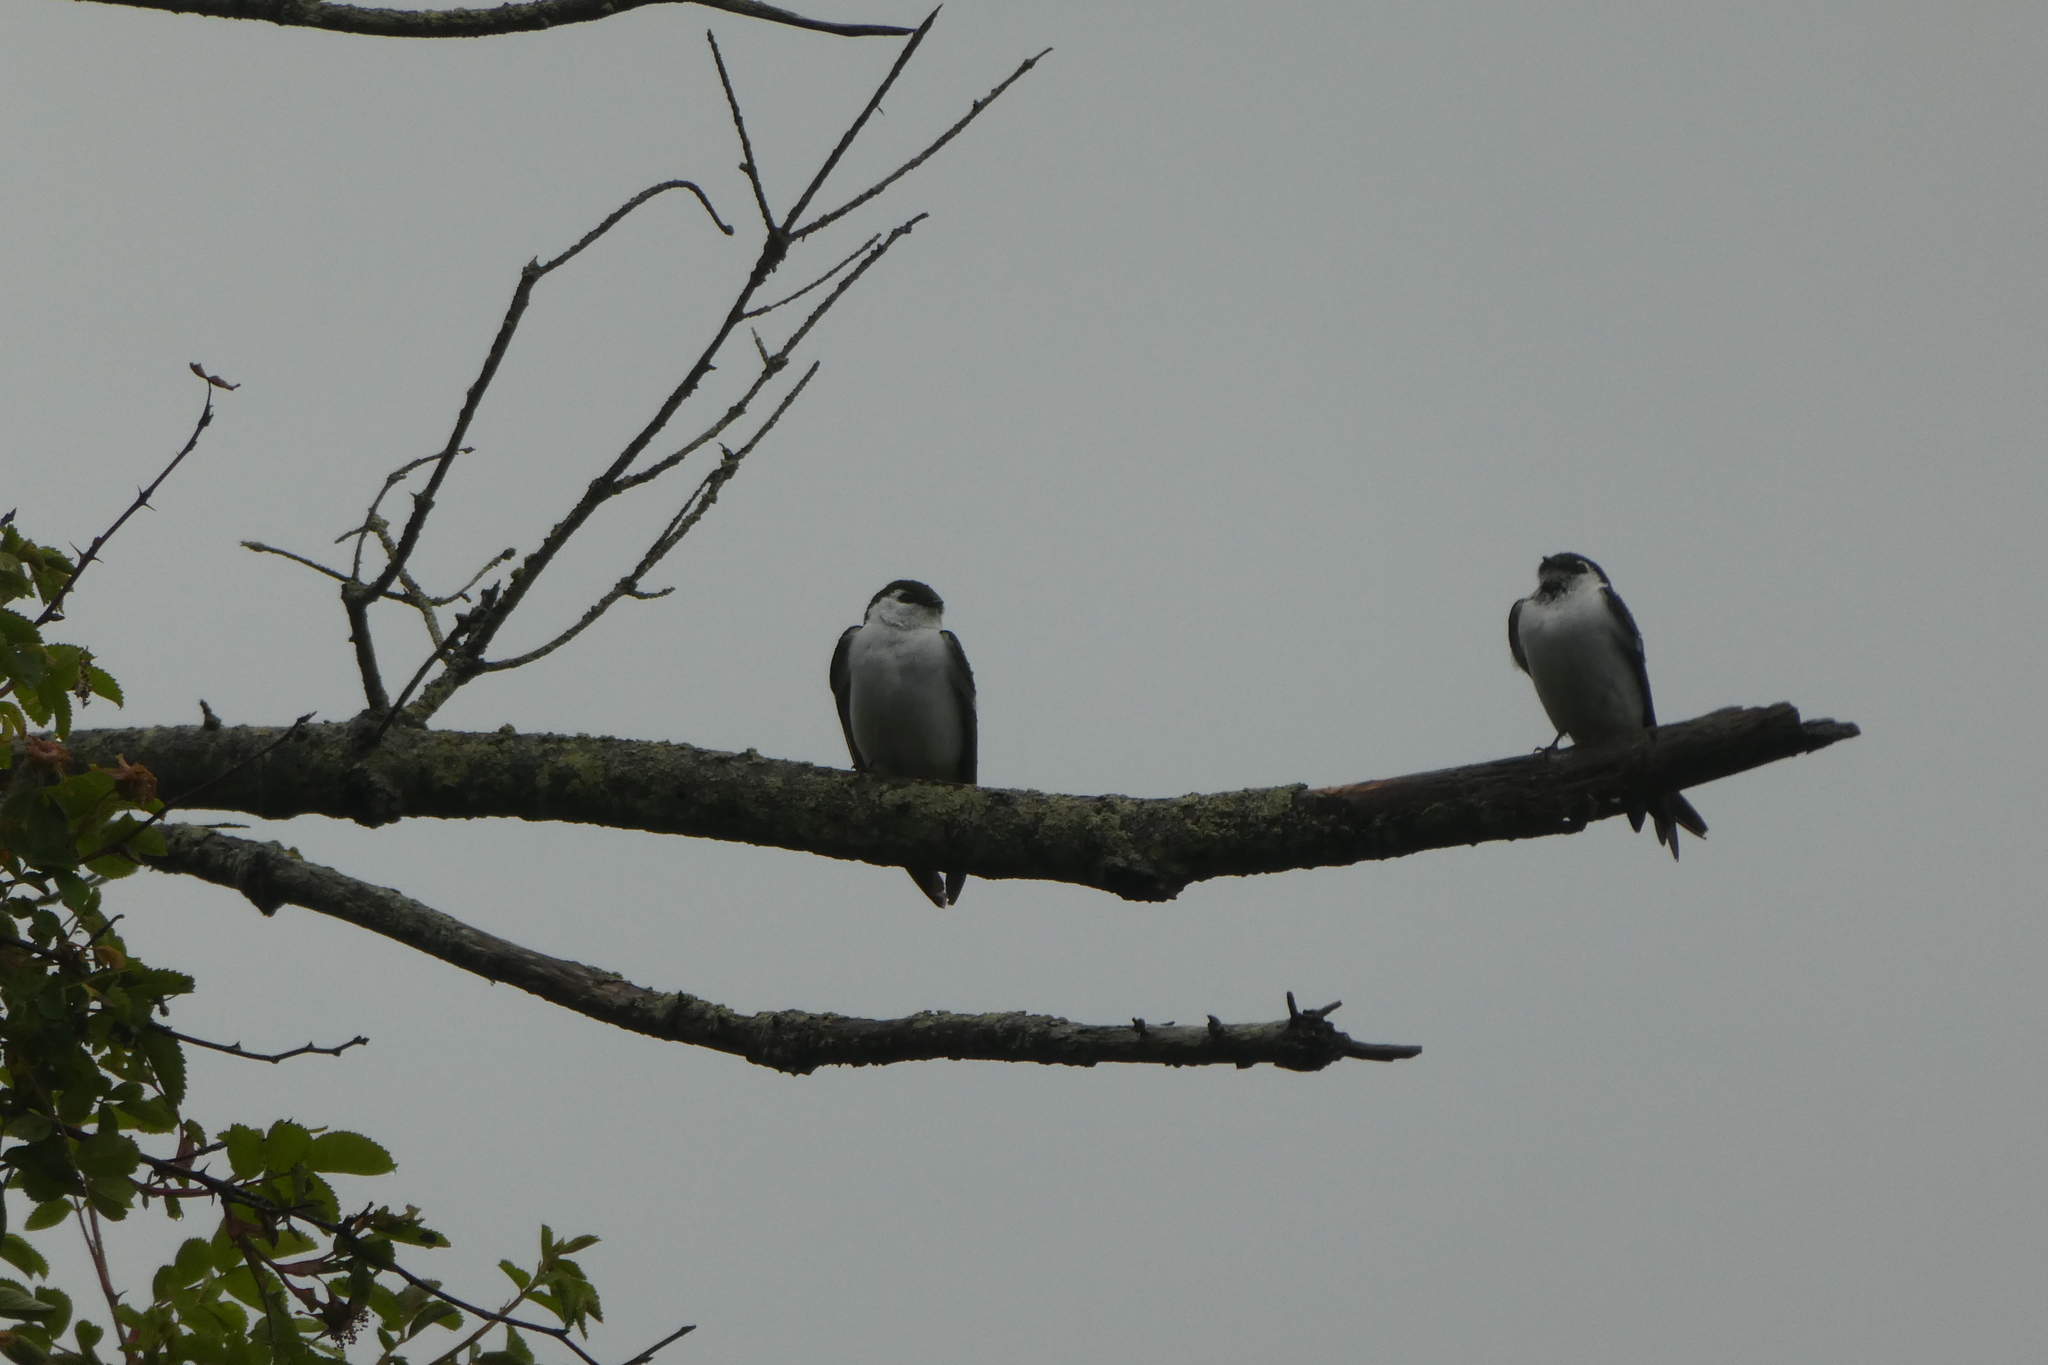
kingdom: Animalia
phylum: Chordata
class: Aves
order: Passeriformes
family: Hirundinidae
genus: Tachycineta
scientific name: Tachycineta thalassina
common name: Violet-green swallow
